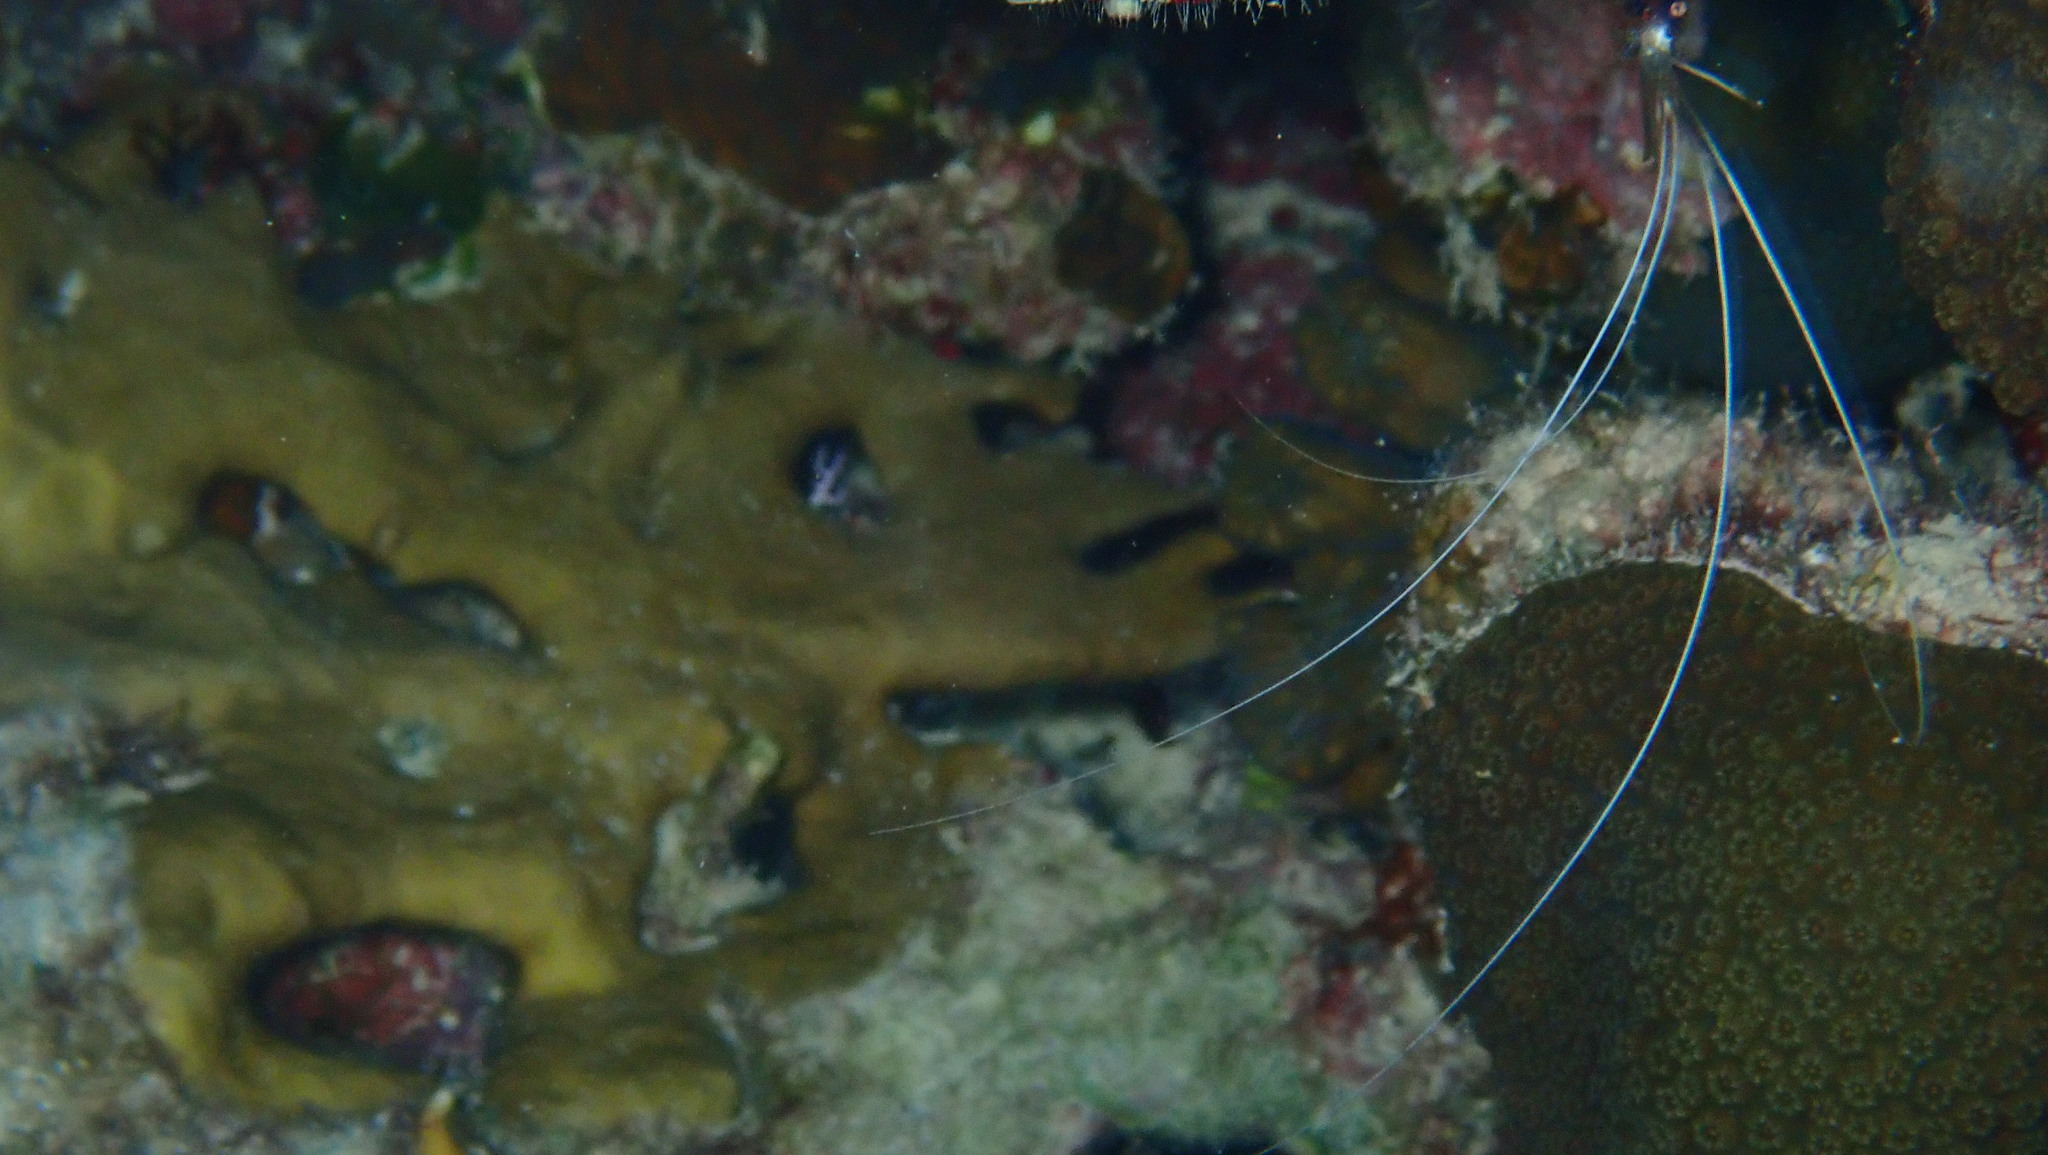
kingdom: Animalia
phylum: Arthropoda
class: Malacostraca
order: Decapoda
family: Stenopodidae
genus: Stenopus
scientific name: Stenopus hispidus
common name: Banded coral shrimp
